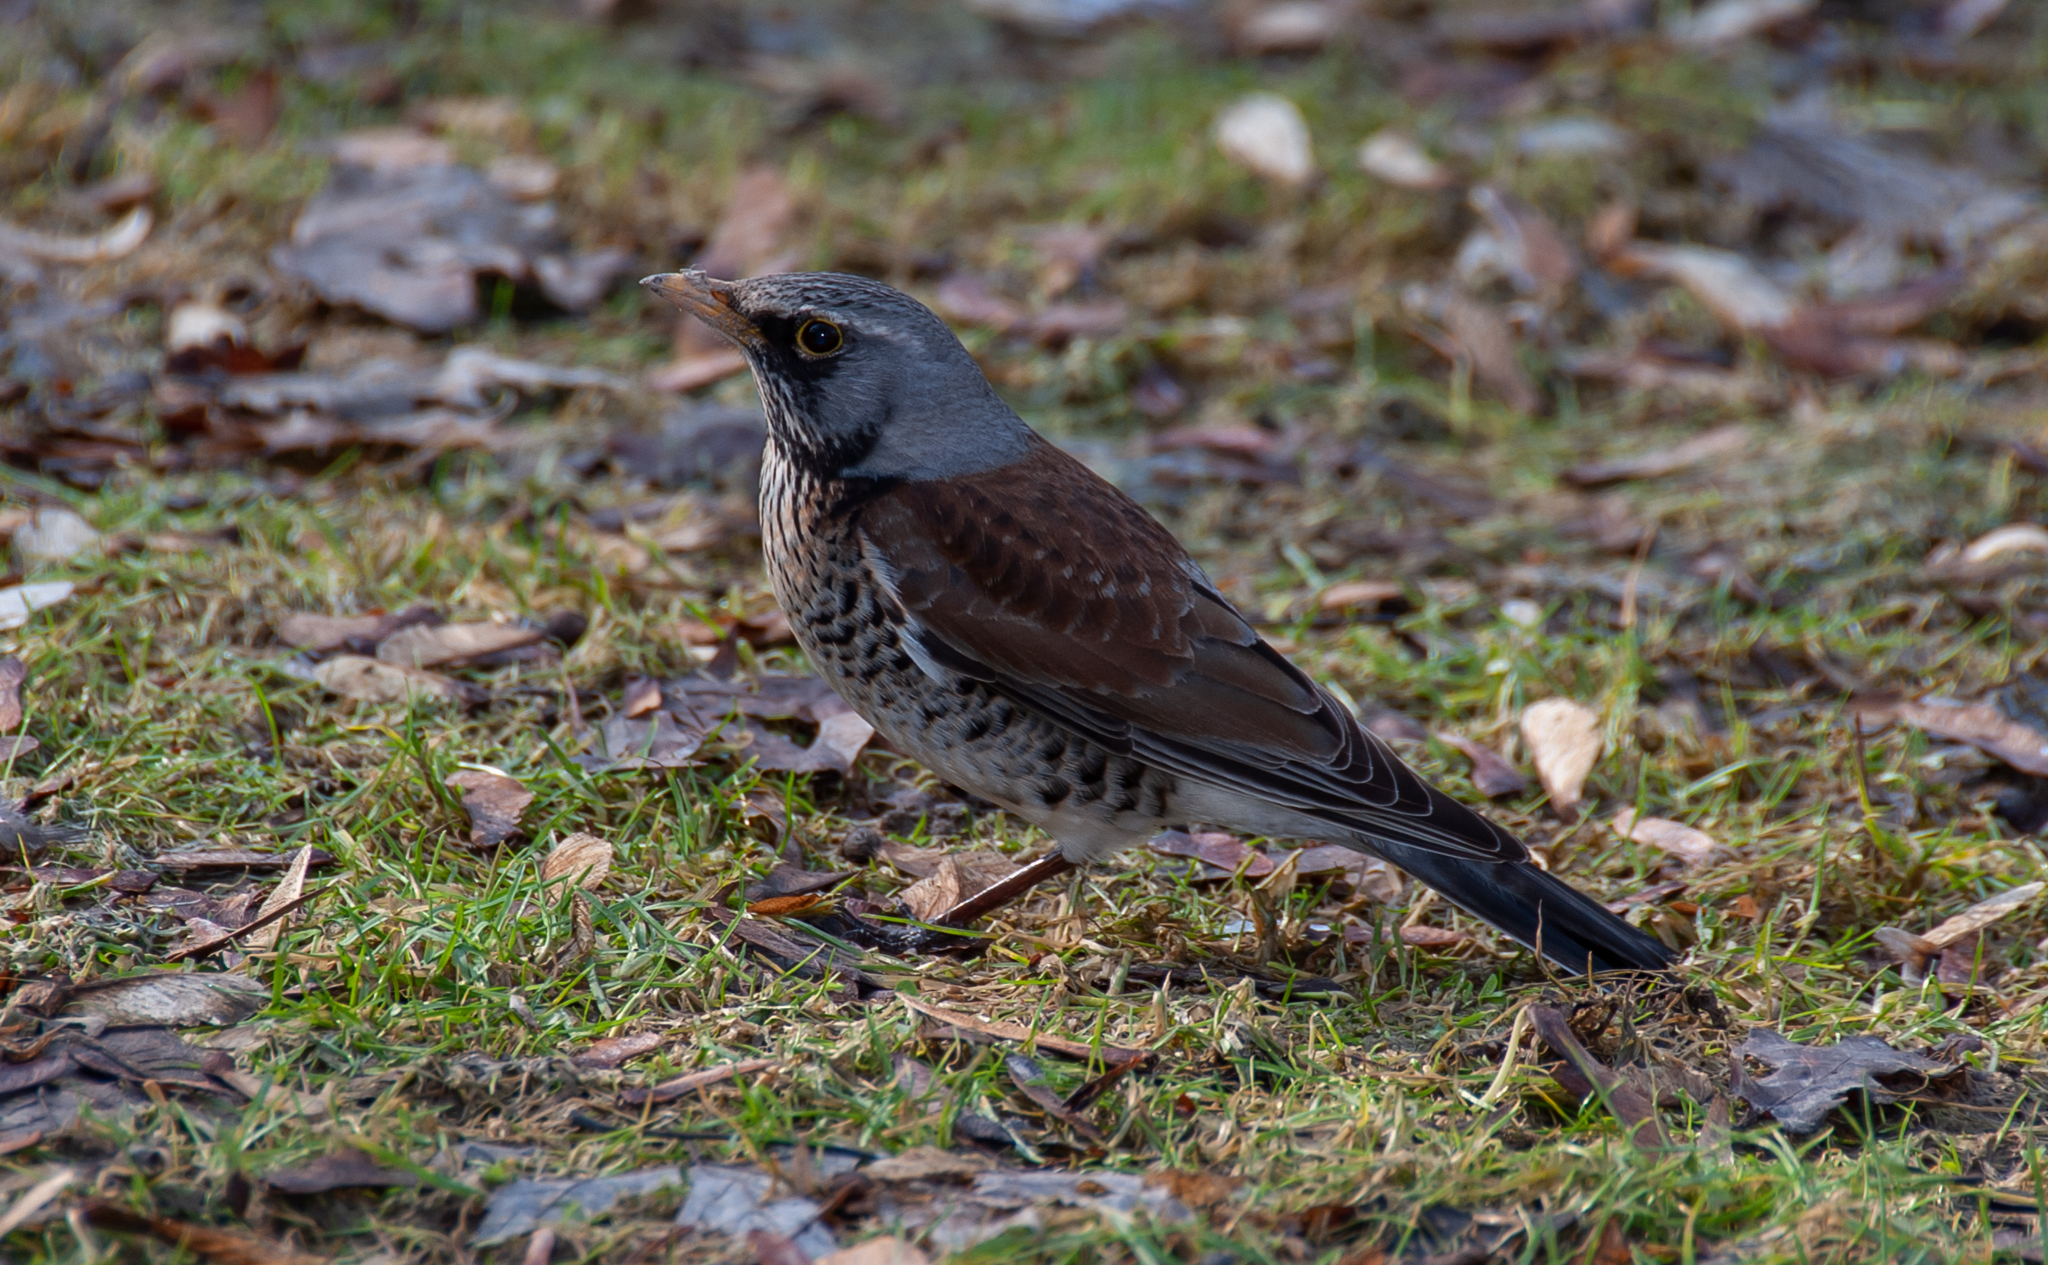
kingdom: Animalia
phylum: Chordata
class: Aves
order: Passeriformes
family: Turdidae
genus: Turdus
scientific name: Turdus pilaris
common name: Fieldfare
